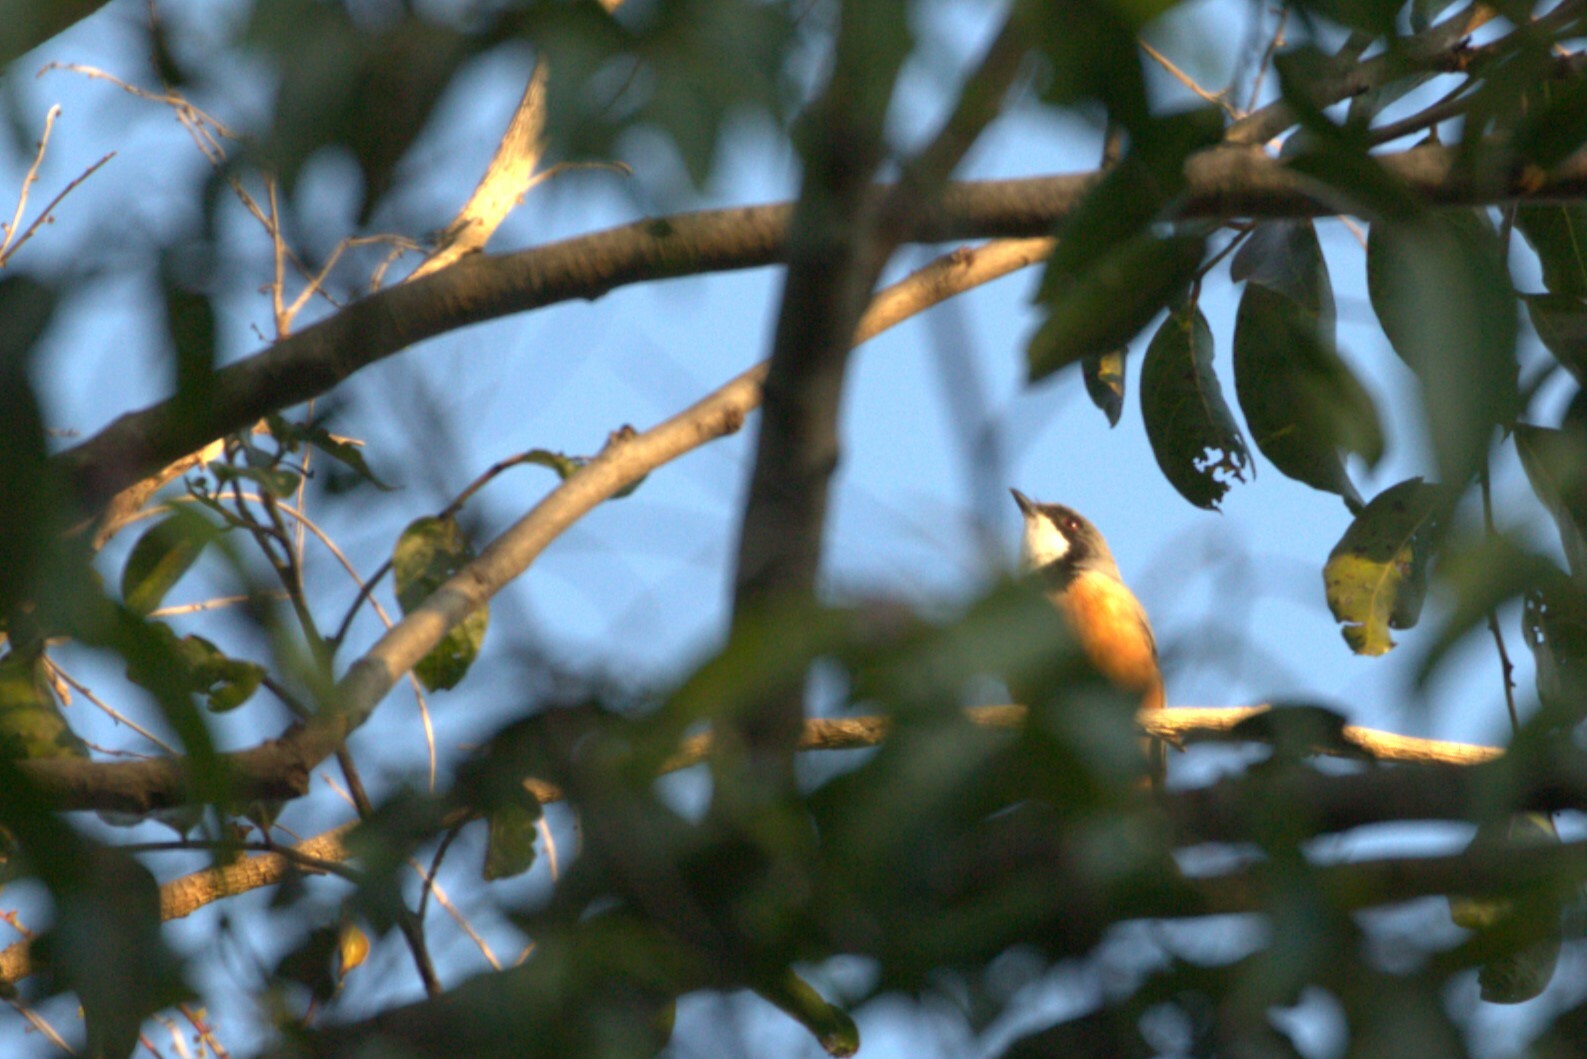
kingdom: Animalia
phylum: Chordata
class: Aves
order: Passeriformes
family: Pachycephalidae
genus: Pachycephala
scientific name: Pachycephala rufiventris
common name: Rufous whistler
